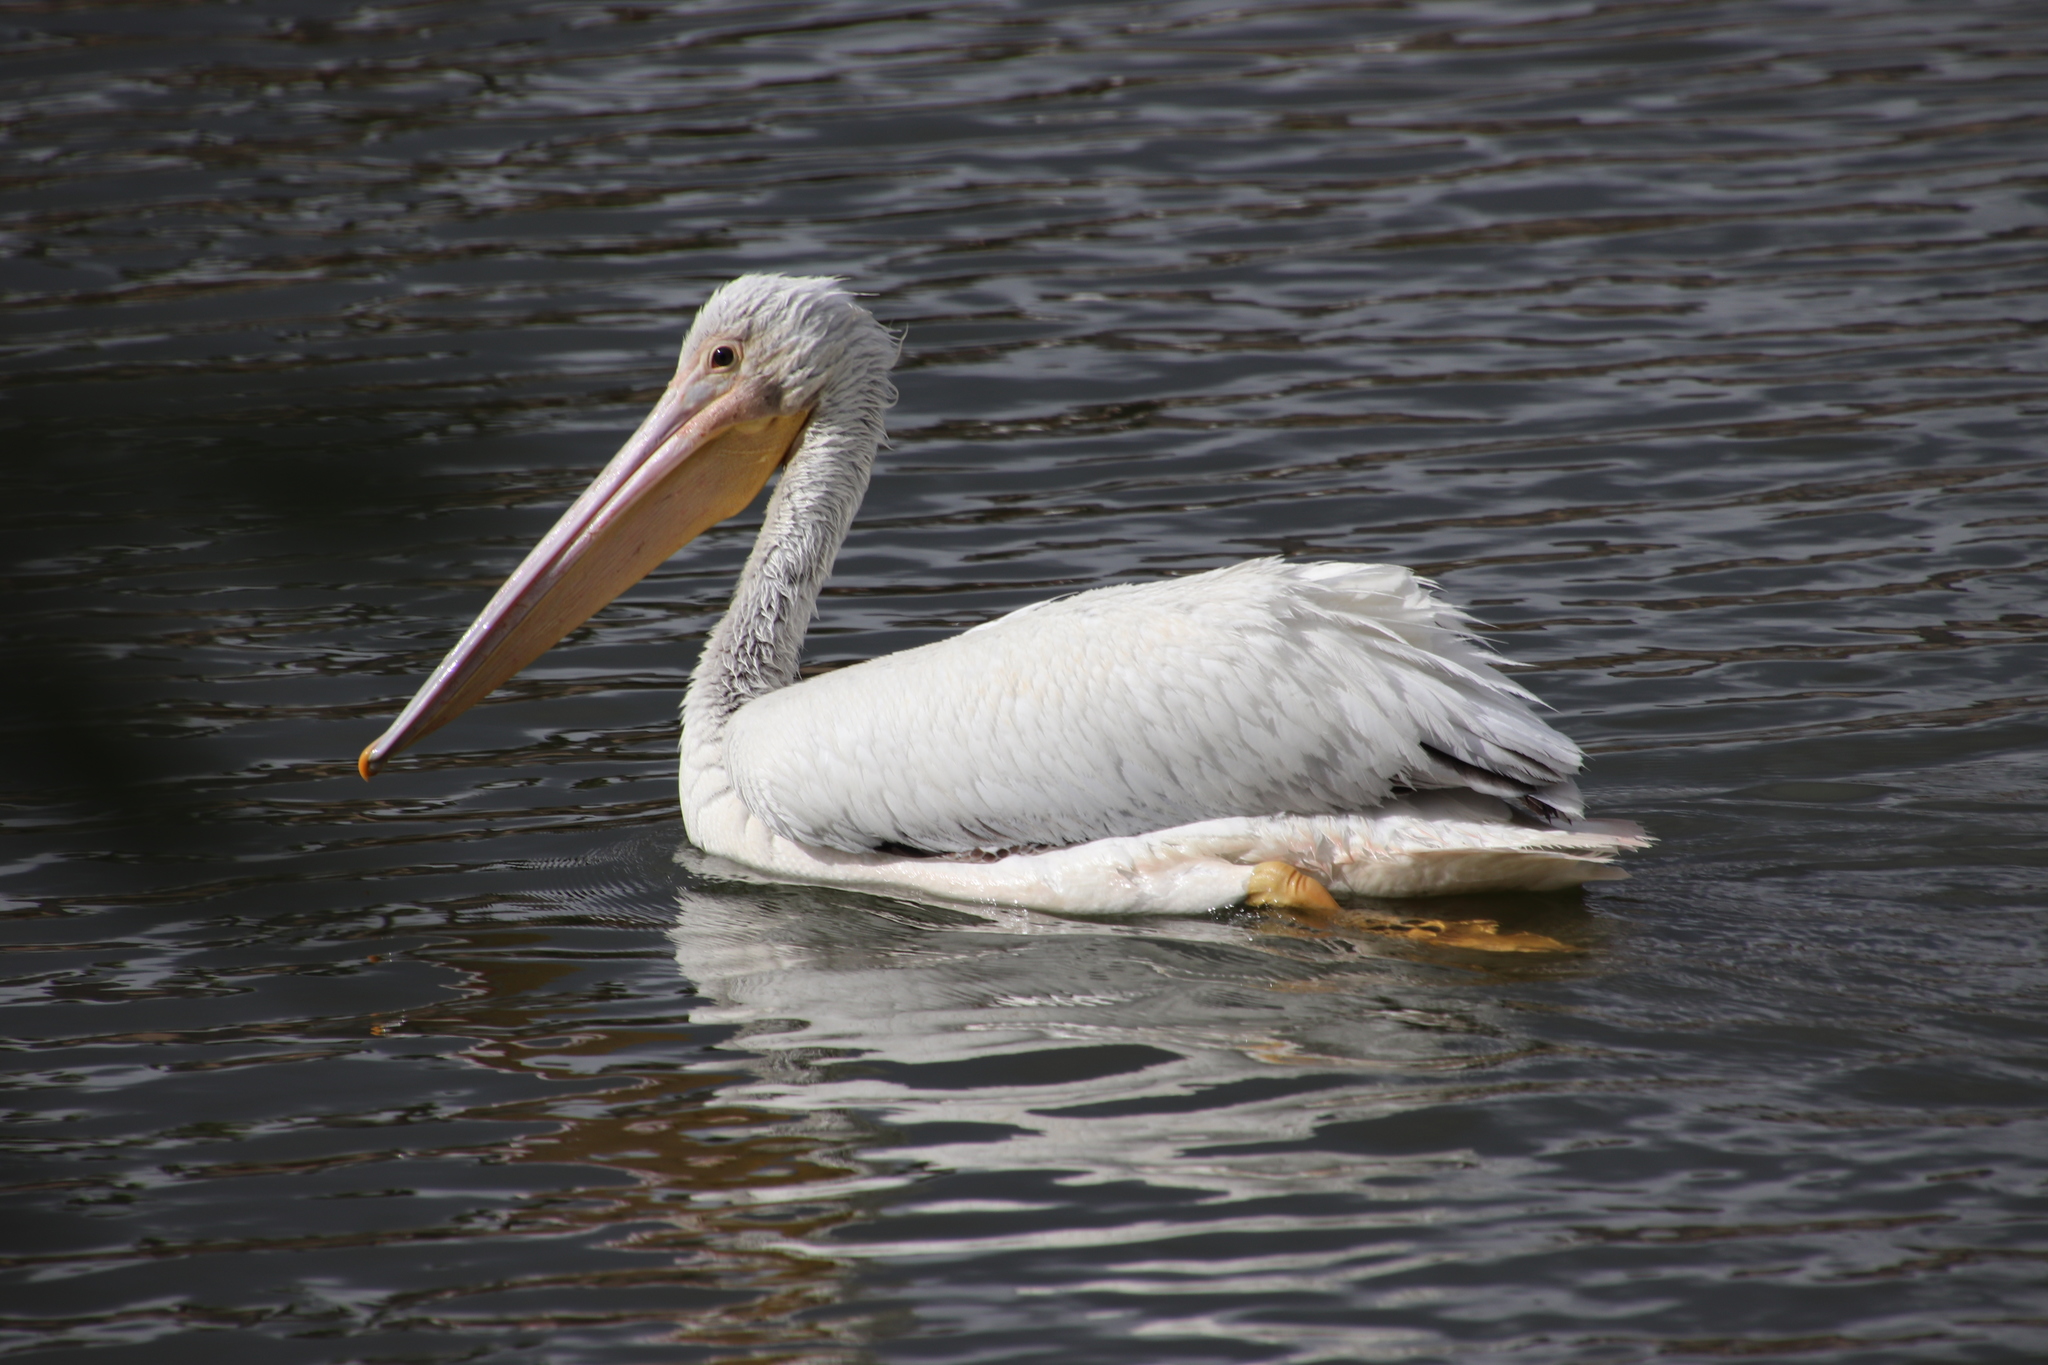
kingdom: Animalia
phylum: Chordata
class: Aves
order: Pelecaniformes
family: Pelecanidae
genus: Pelecanus
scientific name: Pelecanus erythrorhynchos
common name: American white pelican
